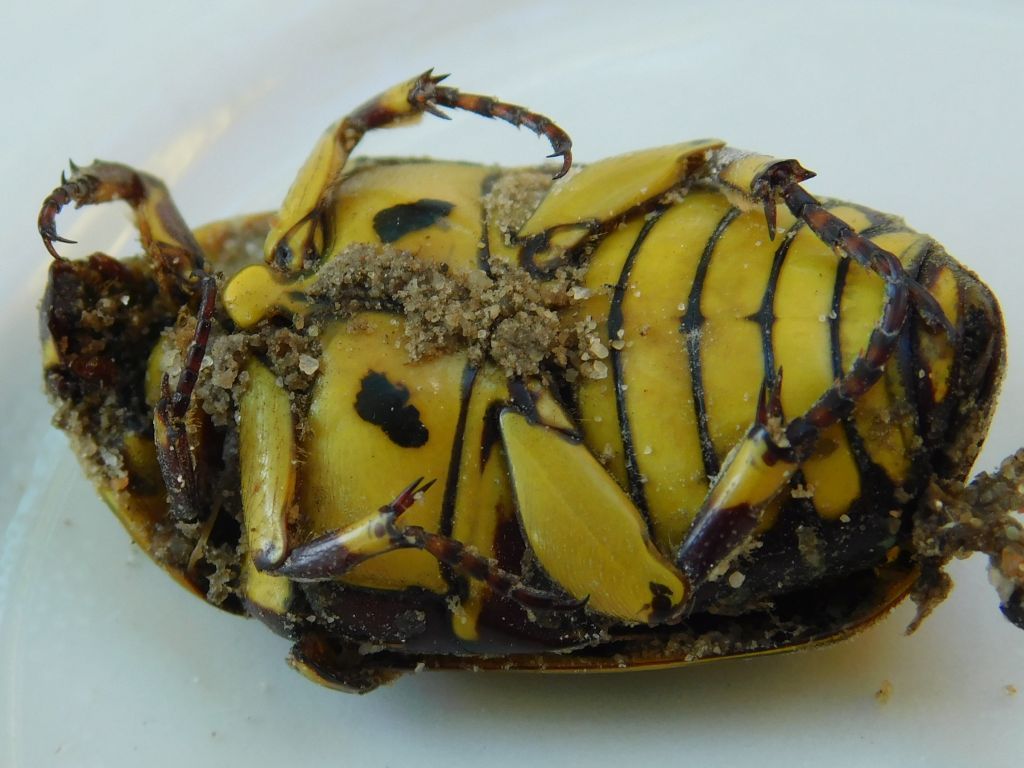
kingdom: Animalia
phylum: Arthropoda
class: Insecta
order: Coleoptera
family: Scarabaeidae
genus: Pachnoda
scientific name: Pachnoda sinuata
